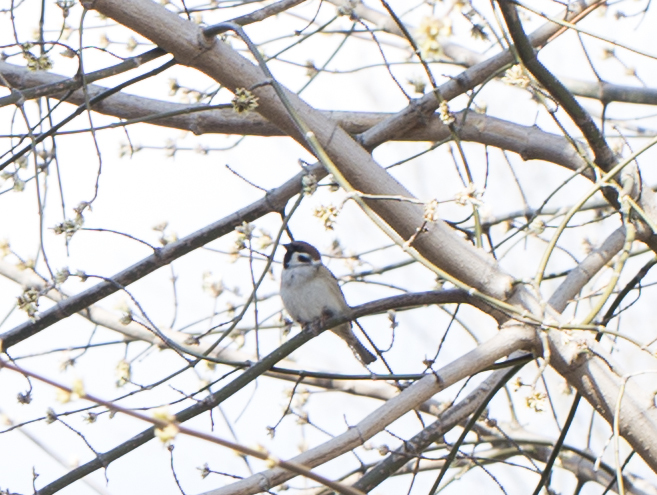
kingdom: Animalia
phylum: Chordata
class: Aves
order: Passeriformes
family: Passeridae
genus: Passer
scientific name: Passer montanus
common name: Eurasian tree sparrow
